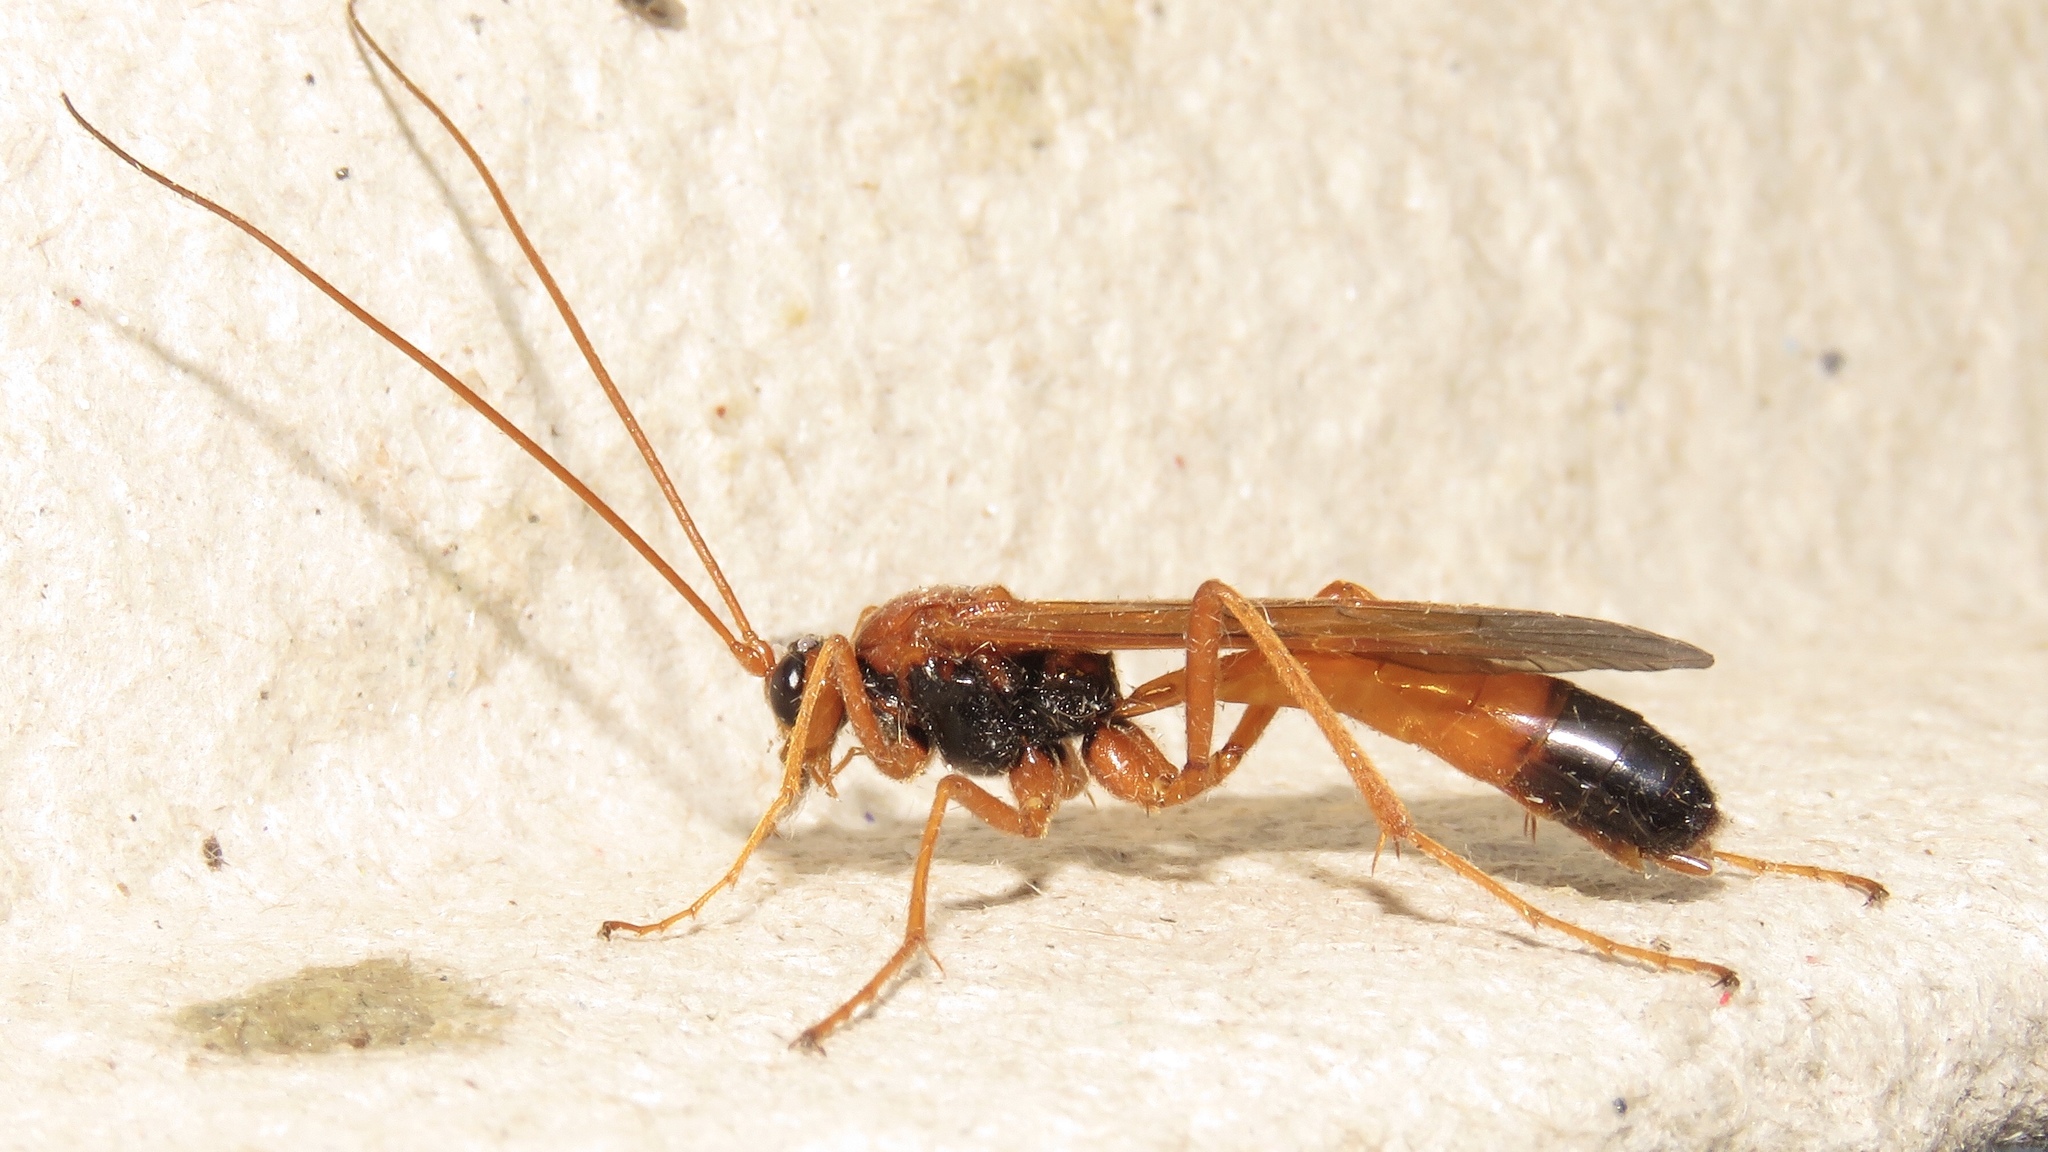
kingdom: Animalia
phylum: Arthropoda
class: Insecta
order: Hymenoptera
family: Ichneumonidae
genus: Opheltes
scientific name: Opheltes glaucopterus
